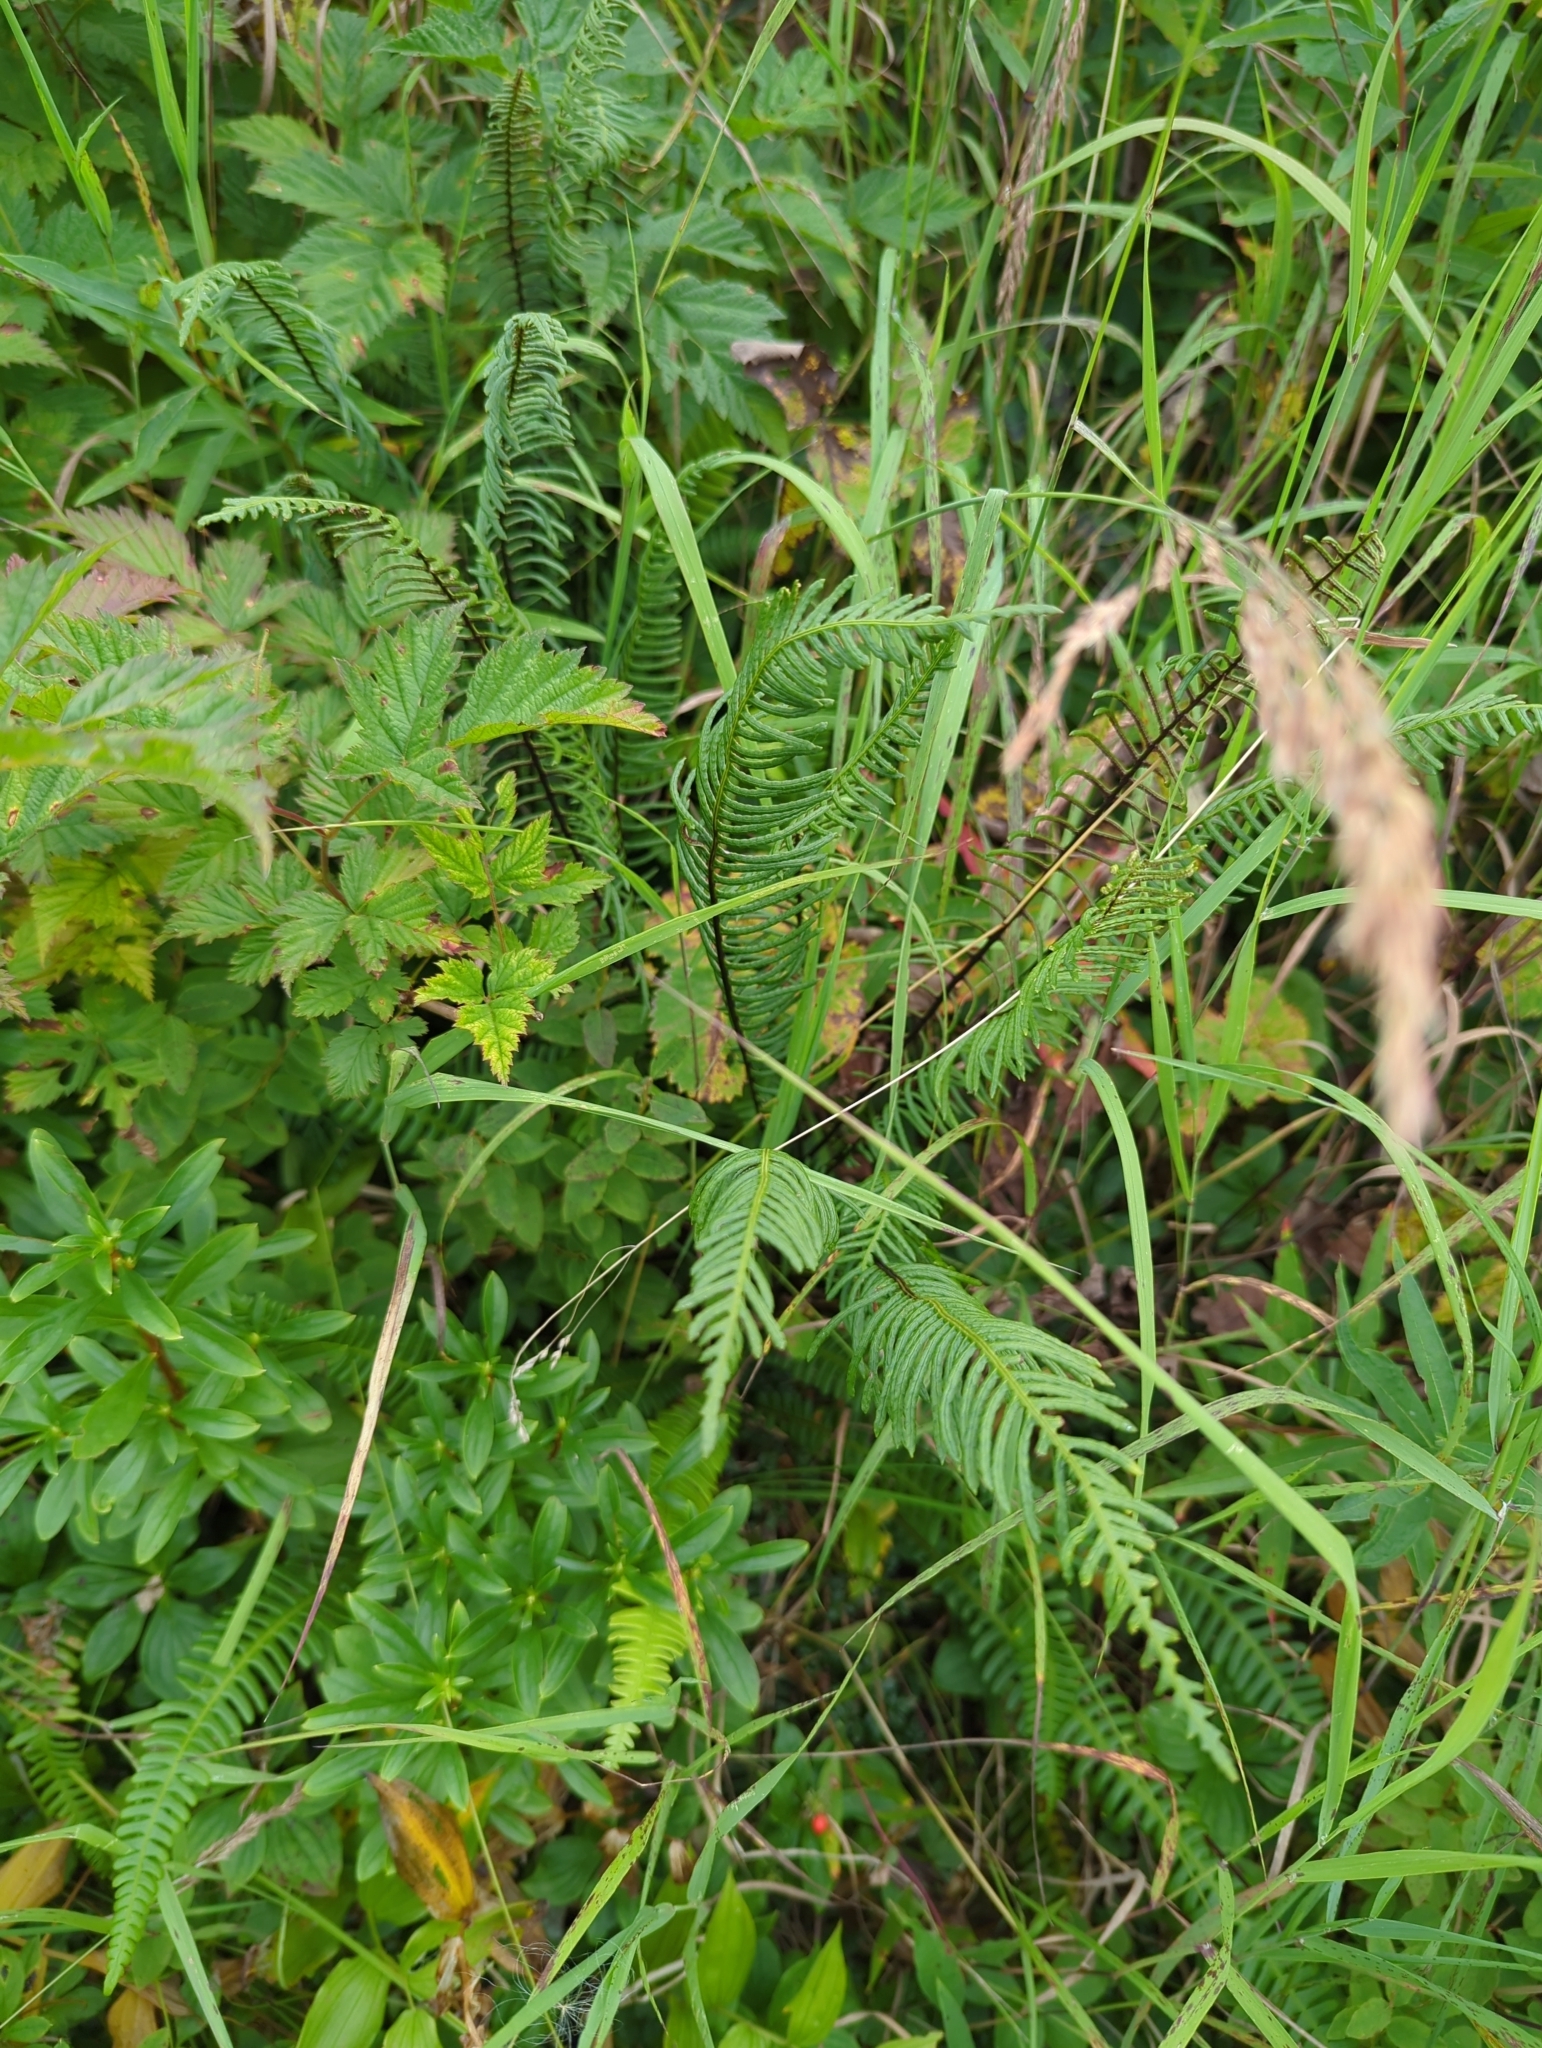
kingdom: Plantae
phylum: Tracheophyta
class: Polypodiopsida
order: Polypodiales
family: Blechnaceae
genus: Struthiopteris
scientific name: Struthiopteris spicant
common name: Deer fern
